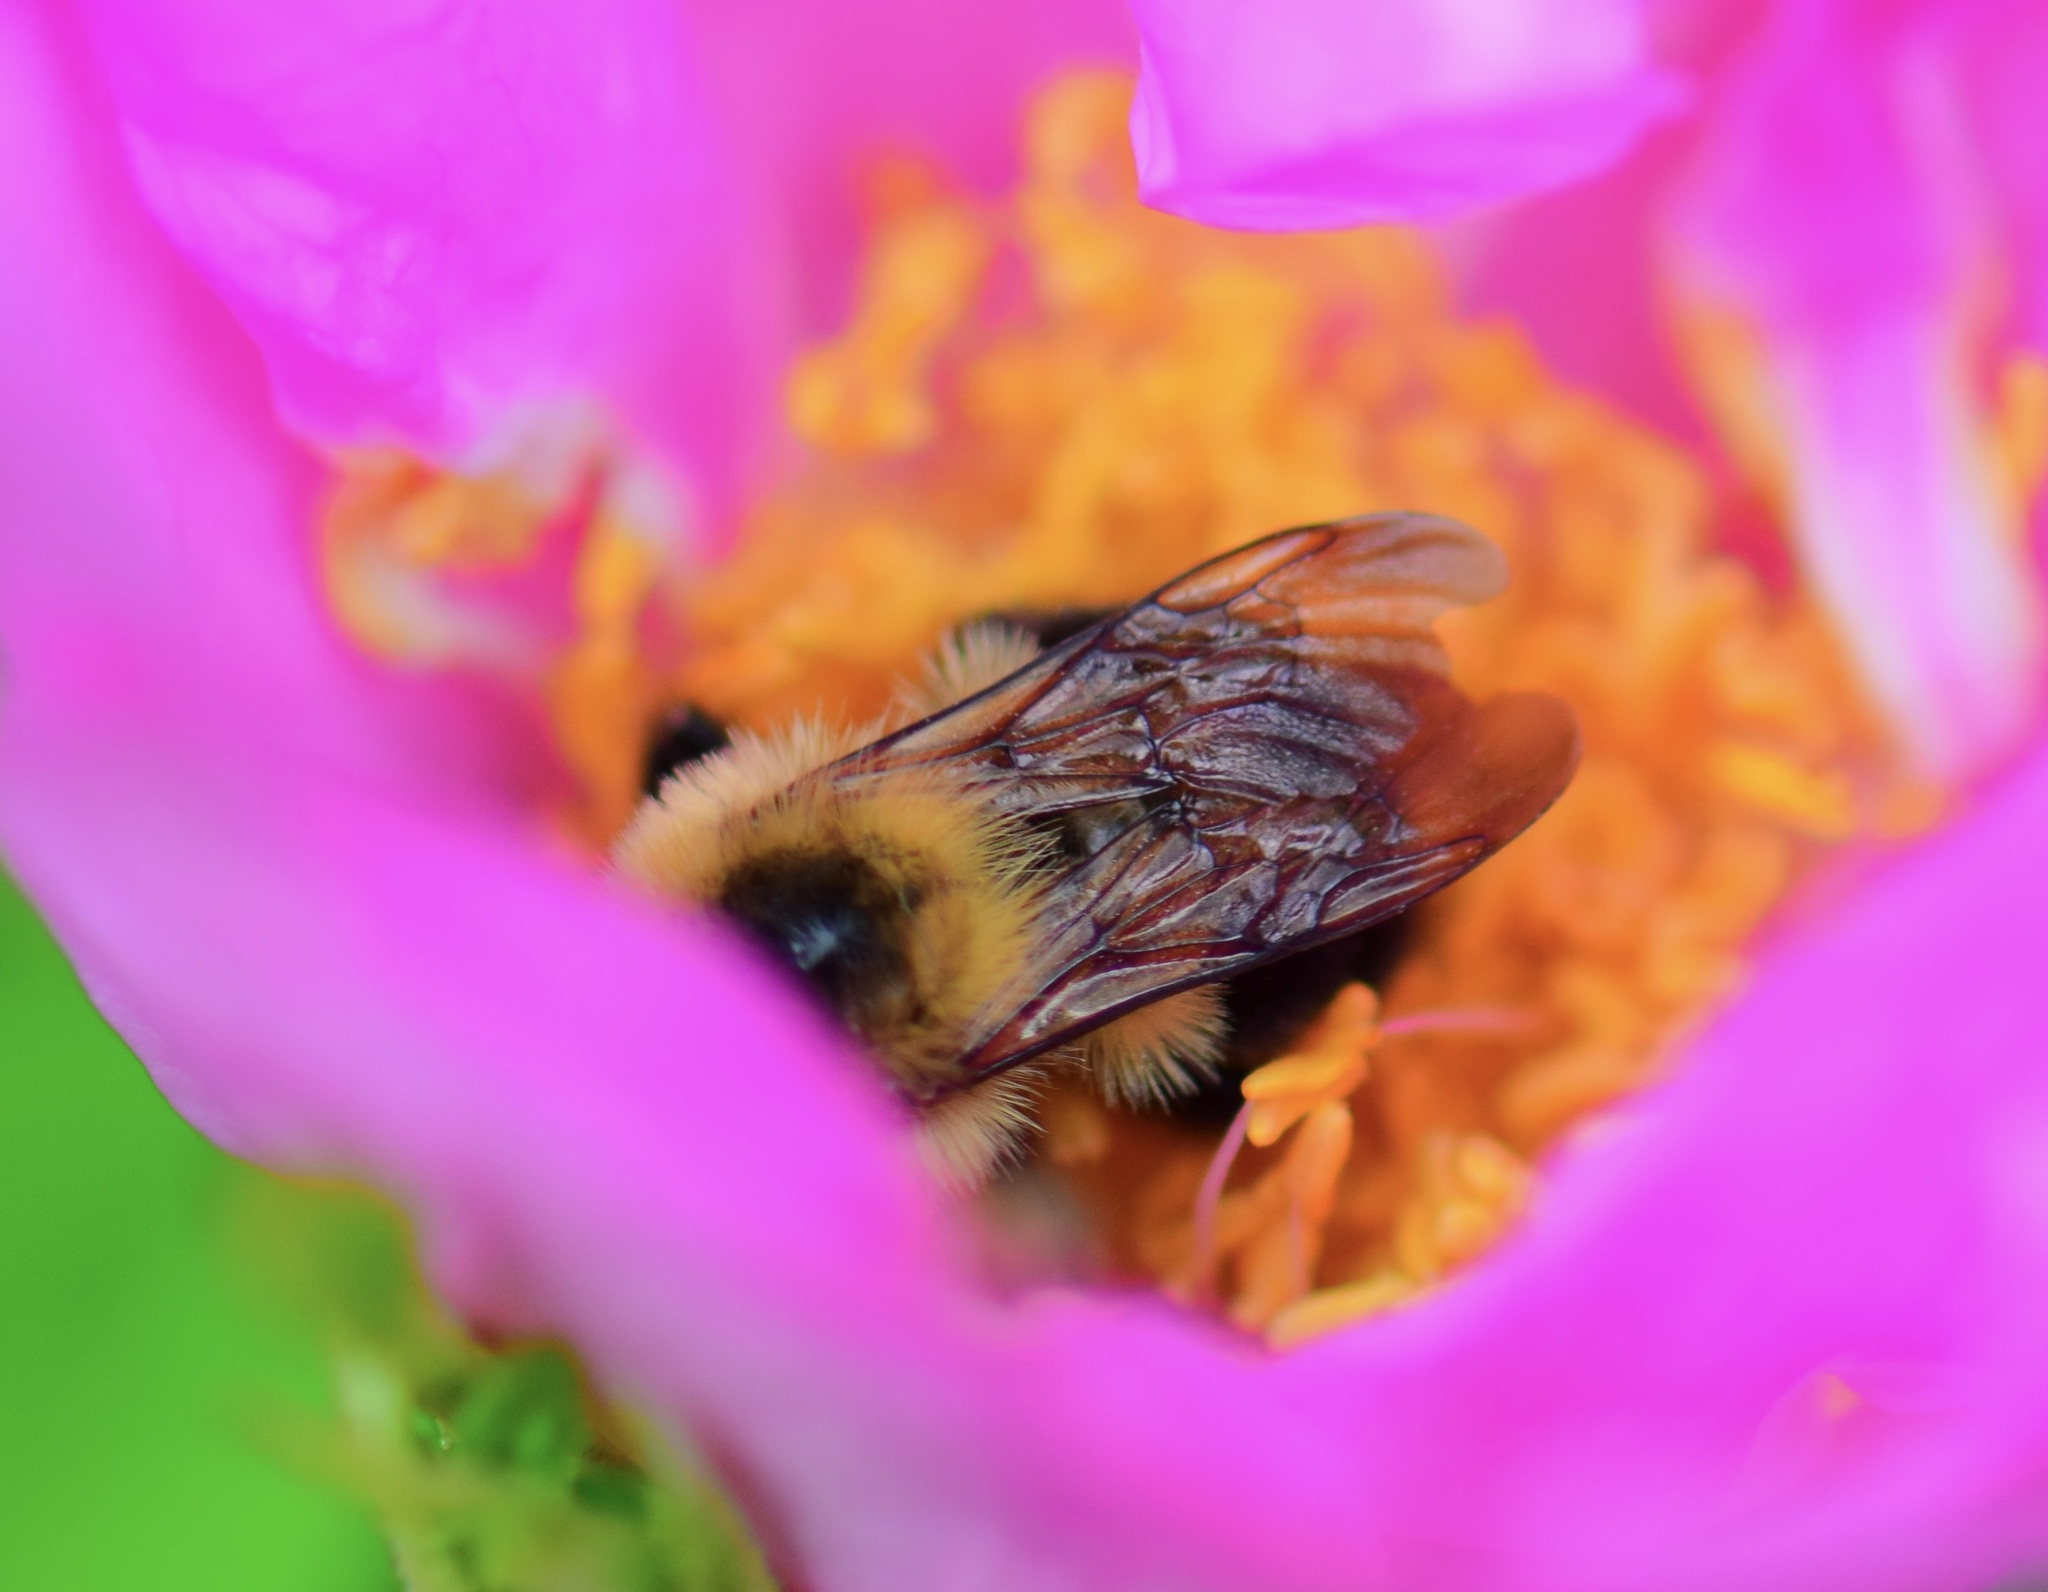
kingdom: Animalia
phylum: Arthropoda
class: Insecta
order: Hymenoptera
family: Apidae
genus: Bombus
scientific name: Bombus bimaculatus
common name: Two-spotted bumble bee
